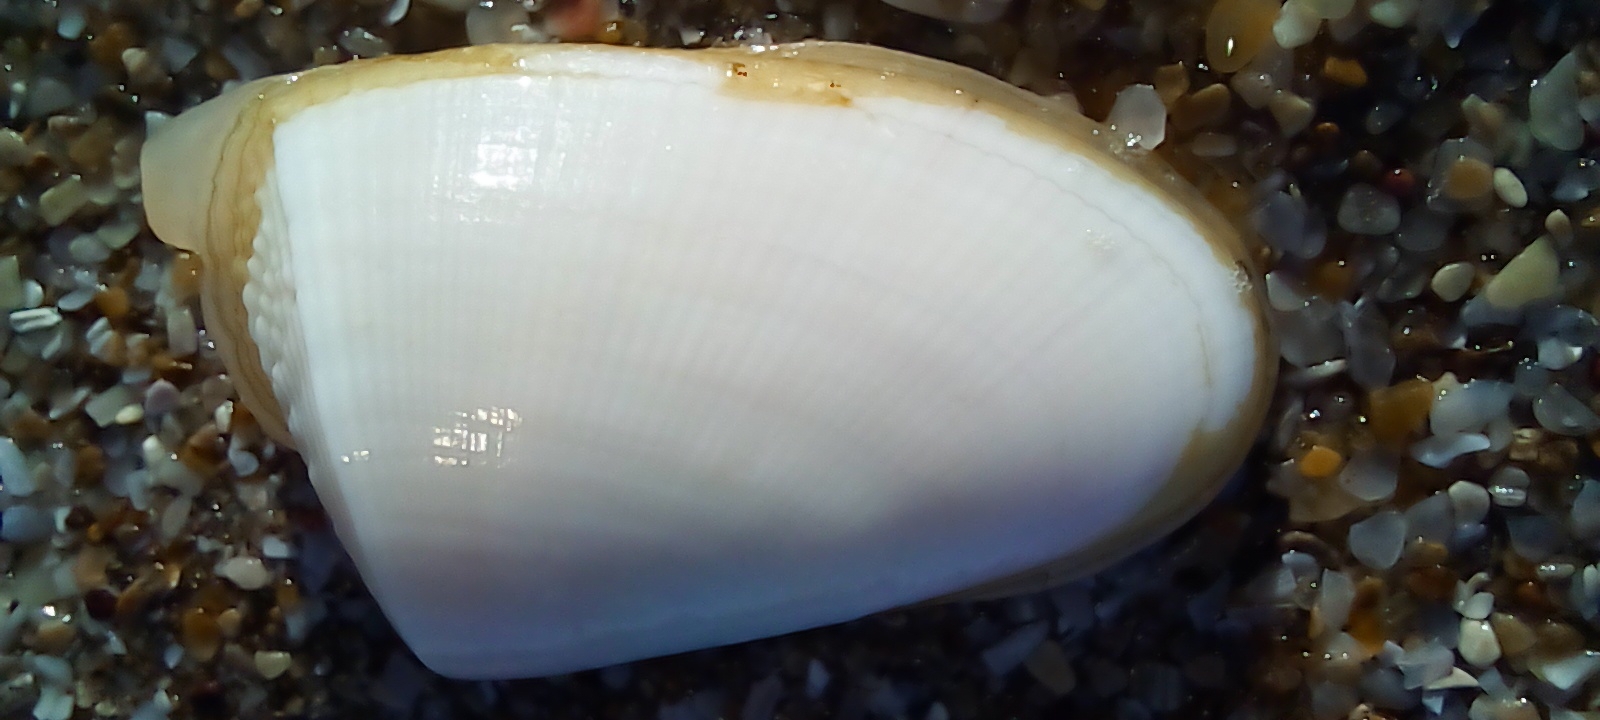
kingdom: Animalia
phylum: Mollusca
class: Bivalvia
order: Cardiida
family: Donacidae
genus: Donax
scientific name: Donax hanleyanus
